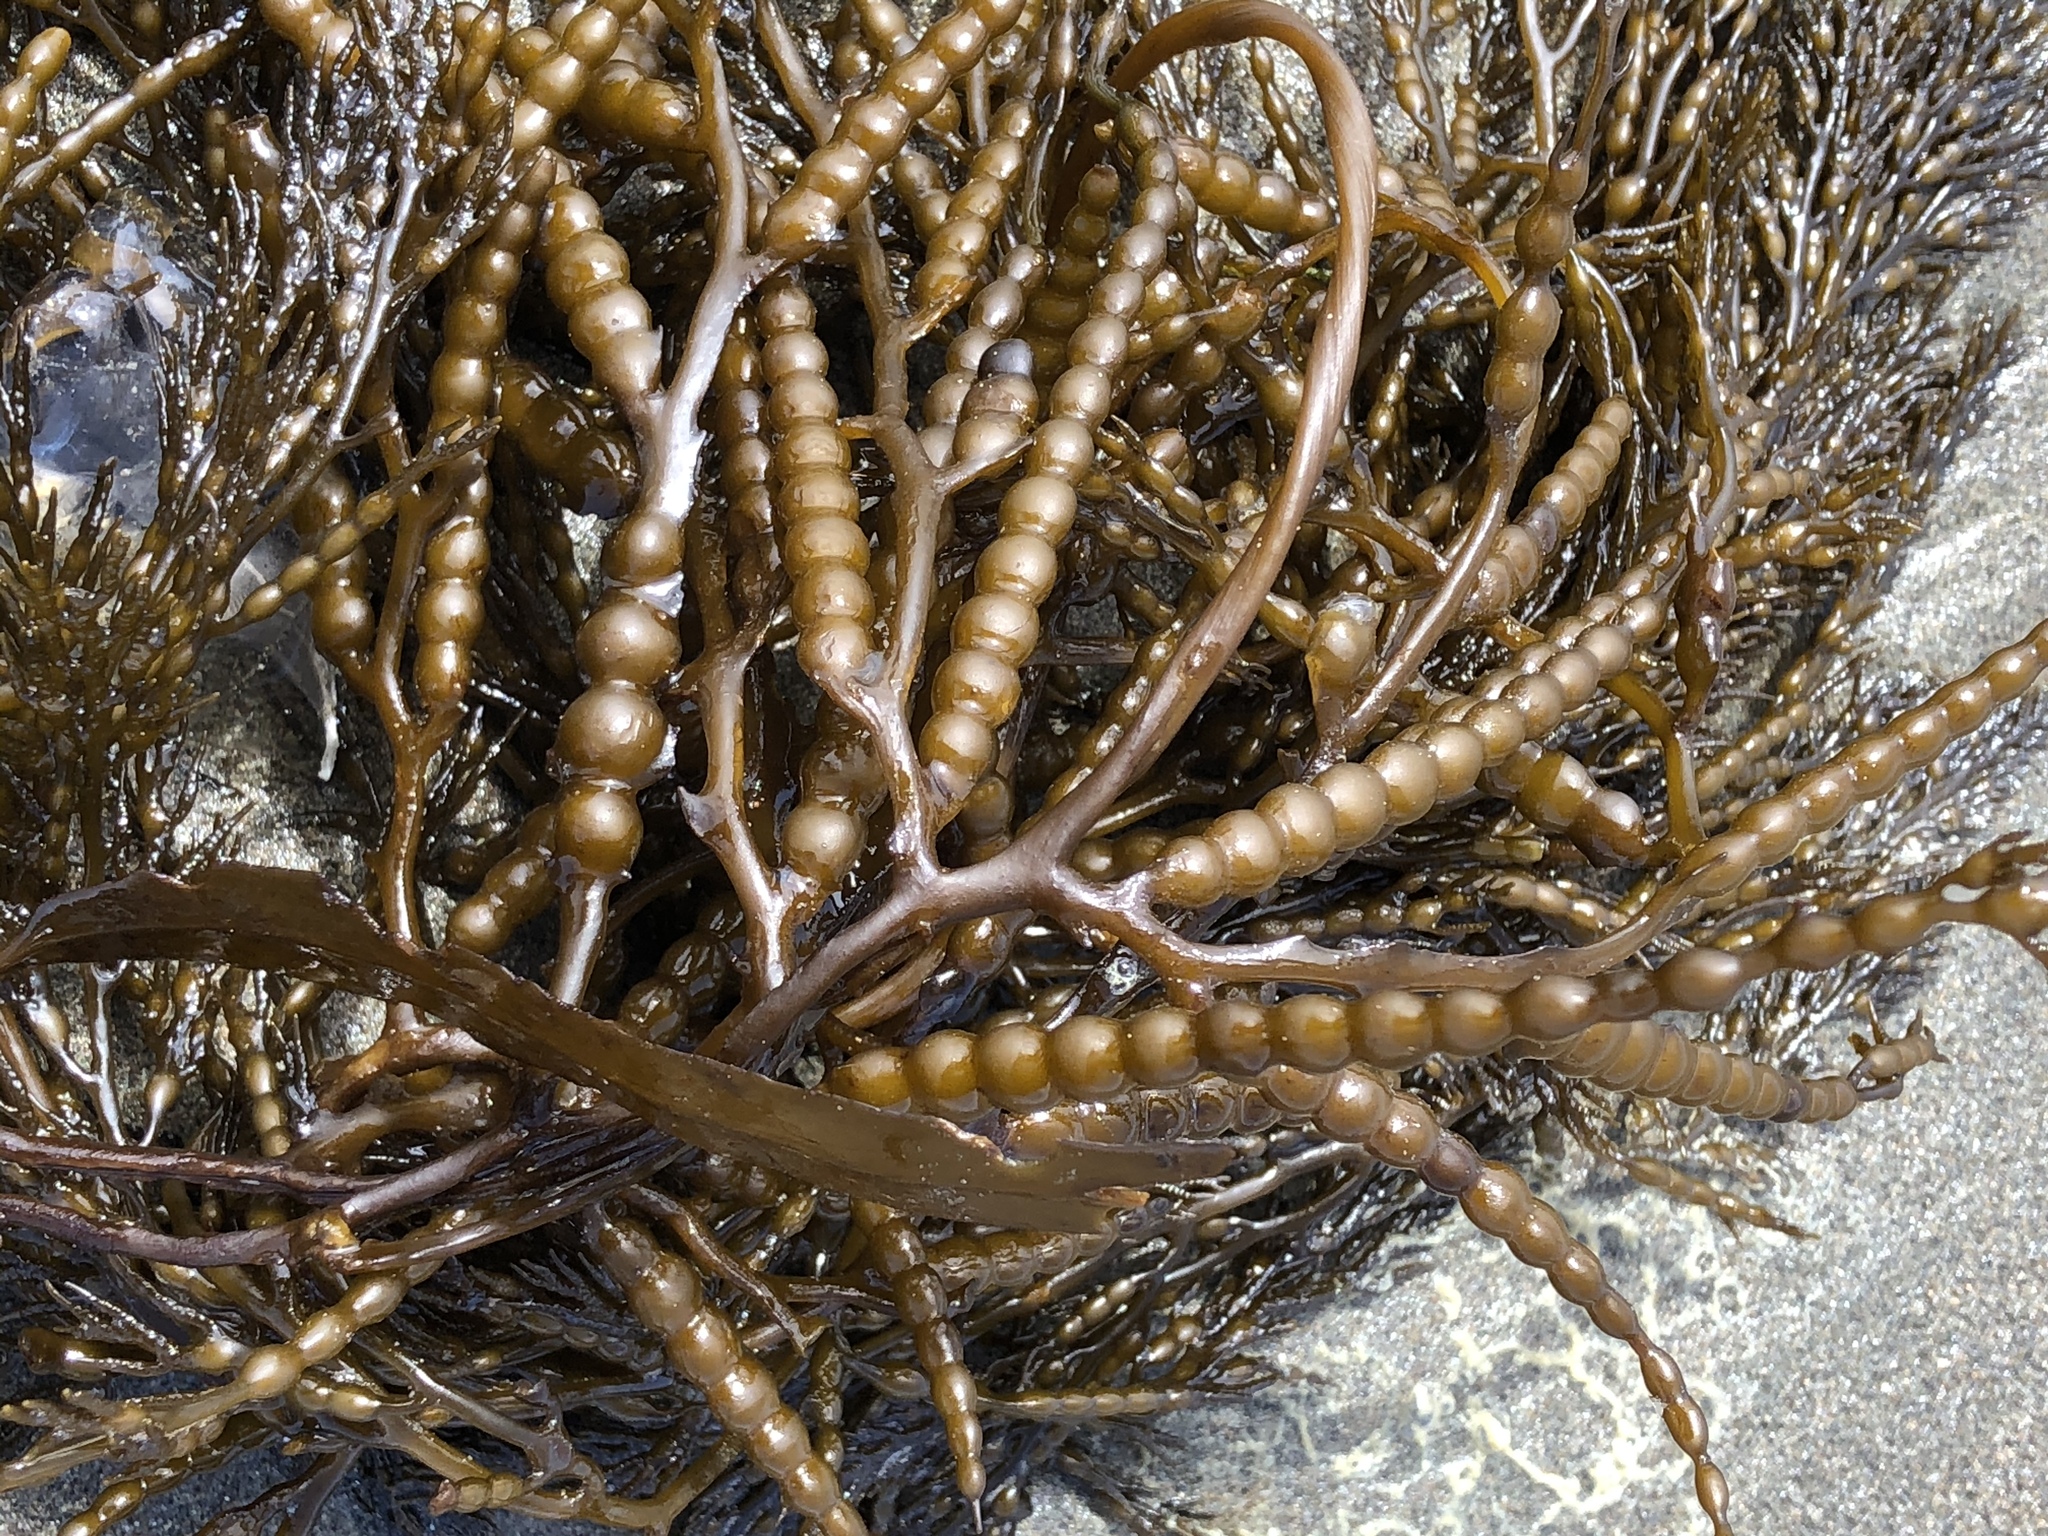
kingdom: Chromista
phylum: Ochrophyta
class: Phaeophyceae
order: Fucales
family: Sargassaceae
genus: Stephanocystis
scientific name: Stephanocystis
